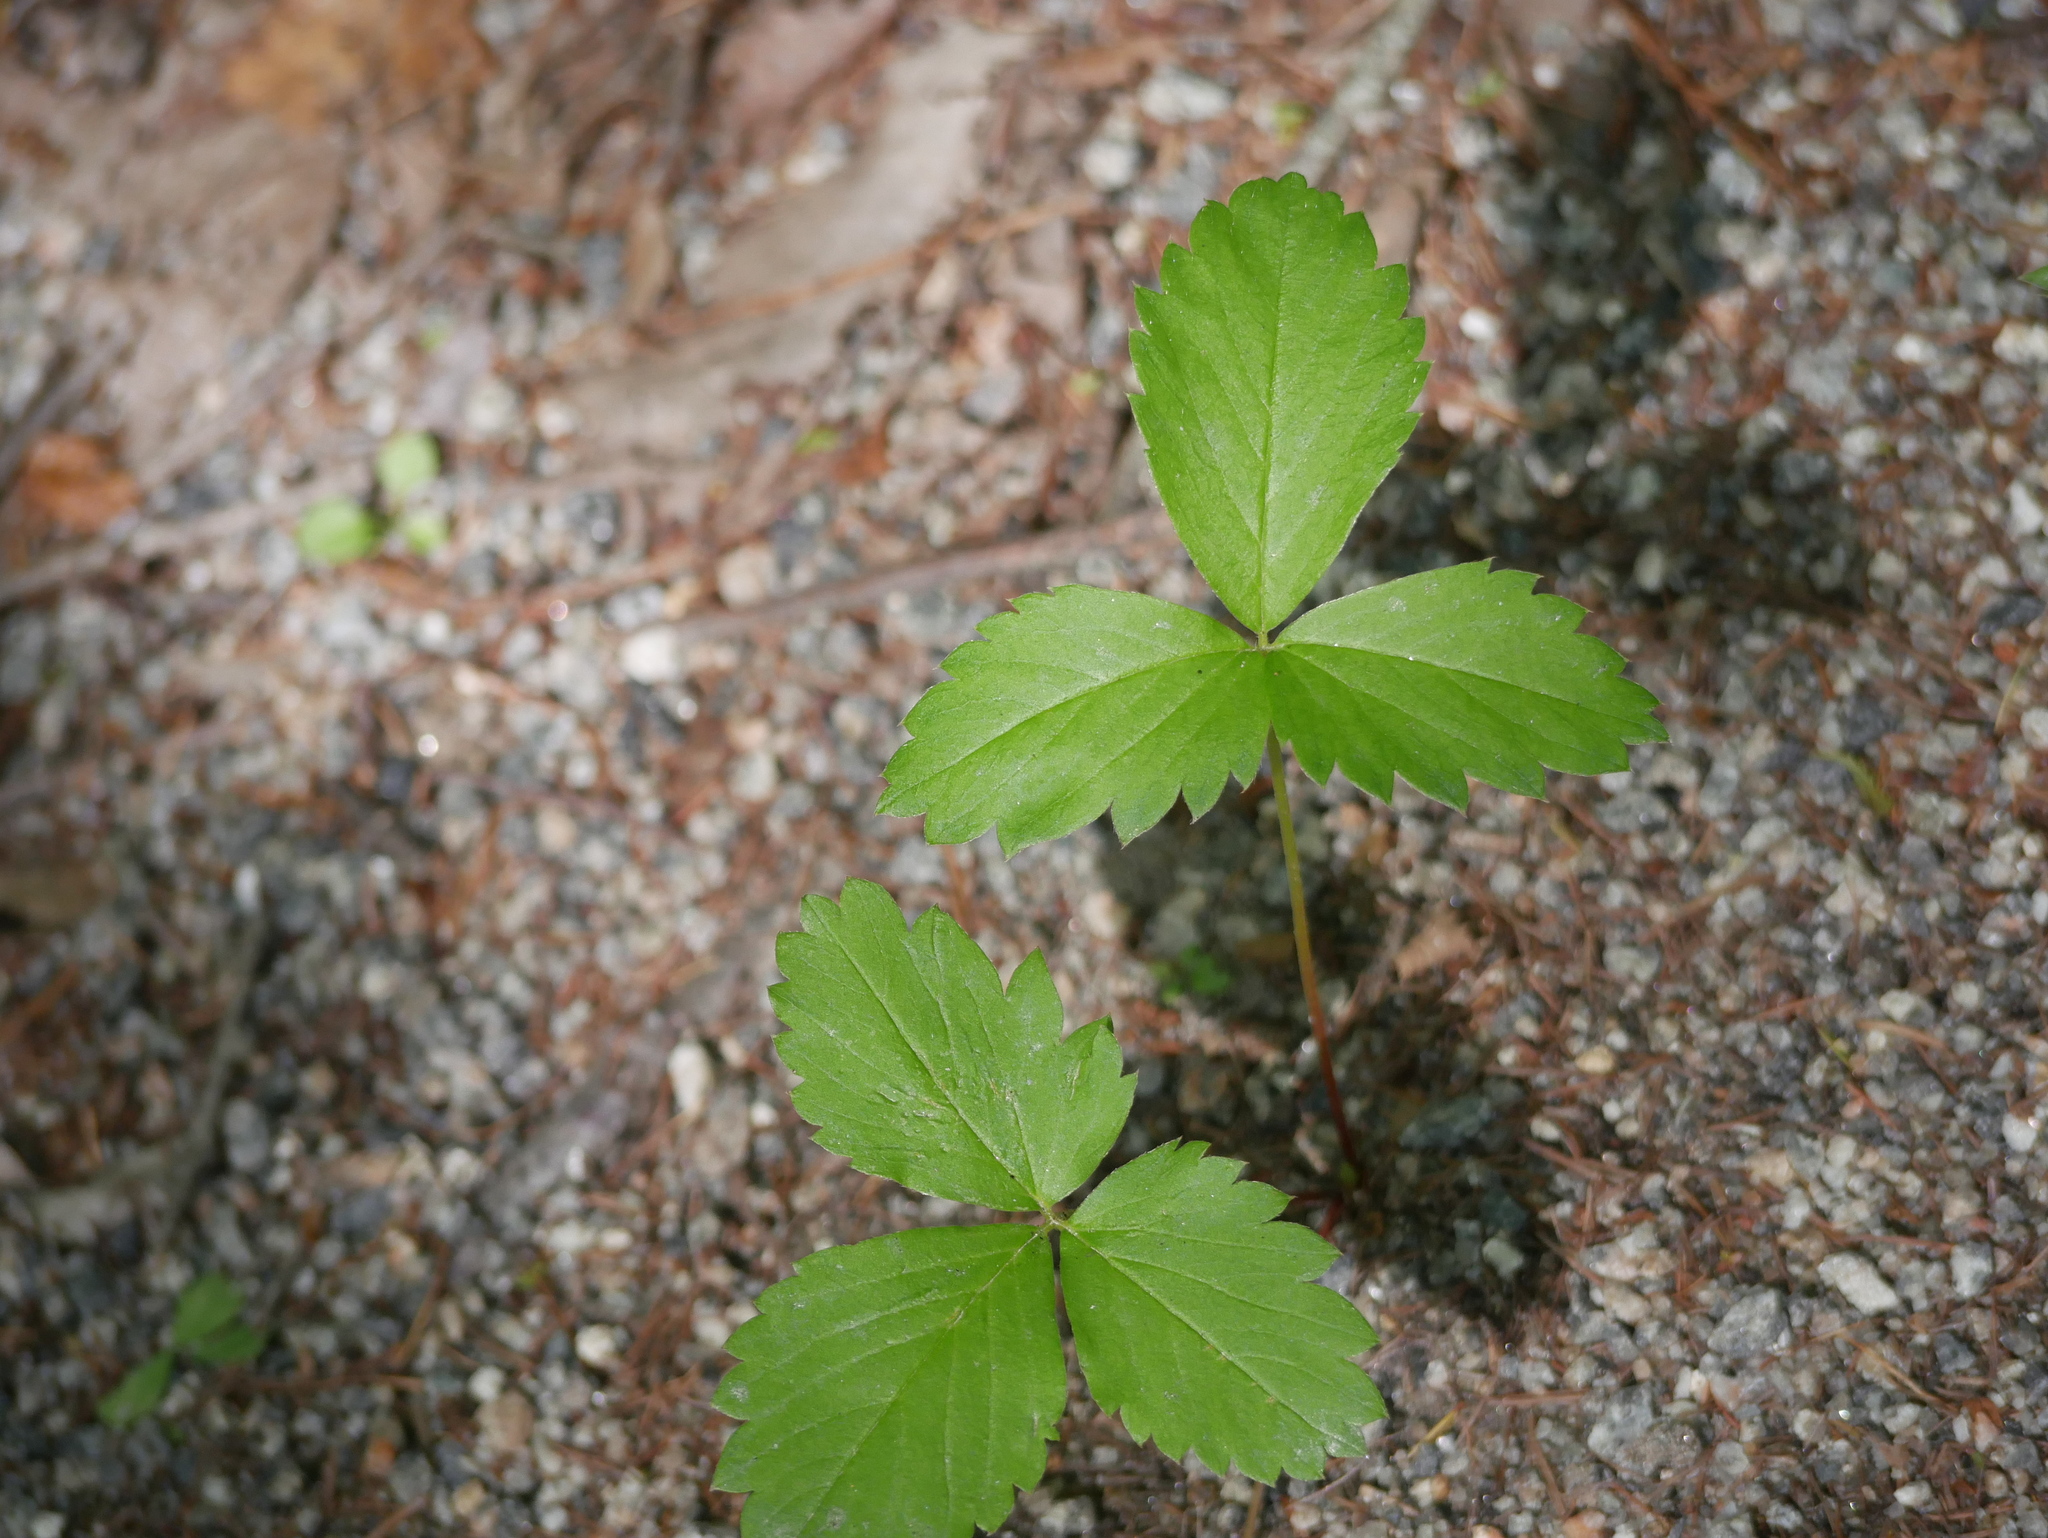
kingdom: Plantae
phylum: Tracheophyta
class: Magnoliopsida
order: Rosales
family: Rosaceae
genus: Fragaria
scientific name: Fragaria virginiana
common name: Thickleaved wild strawberry
